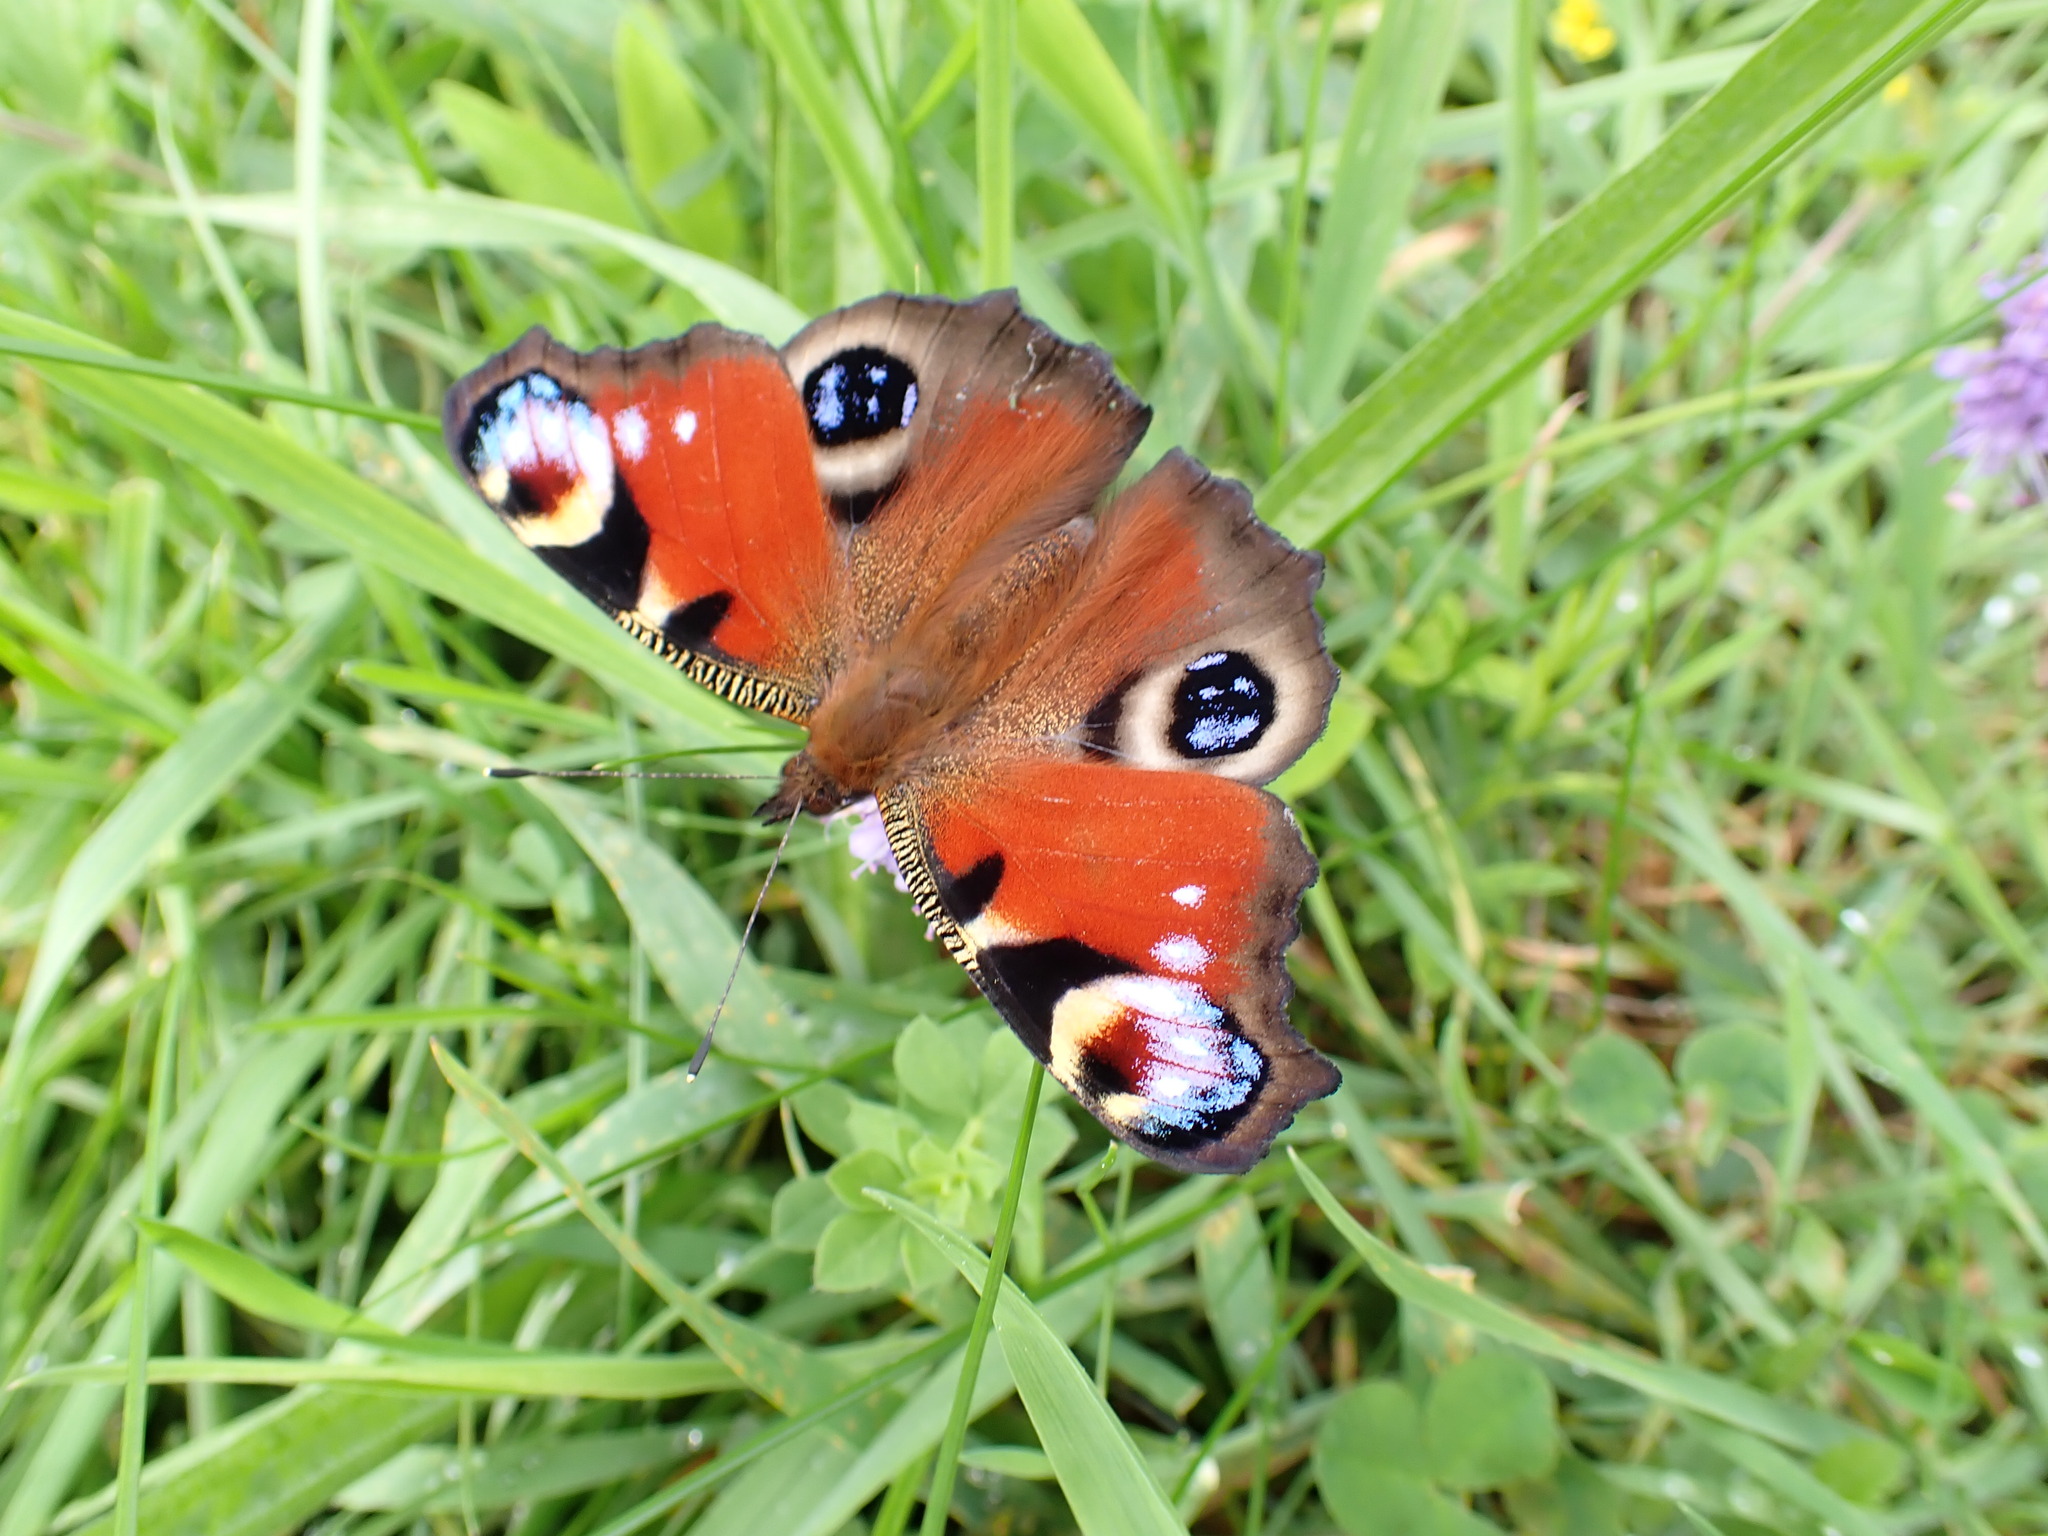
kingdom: Animalia
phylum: Arthropoda
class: Insecta
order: Lepidoptera
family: Nymphalidae
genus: Aglais
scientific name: Aglais io
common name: Peacock
